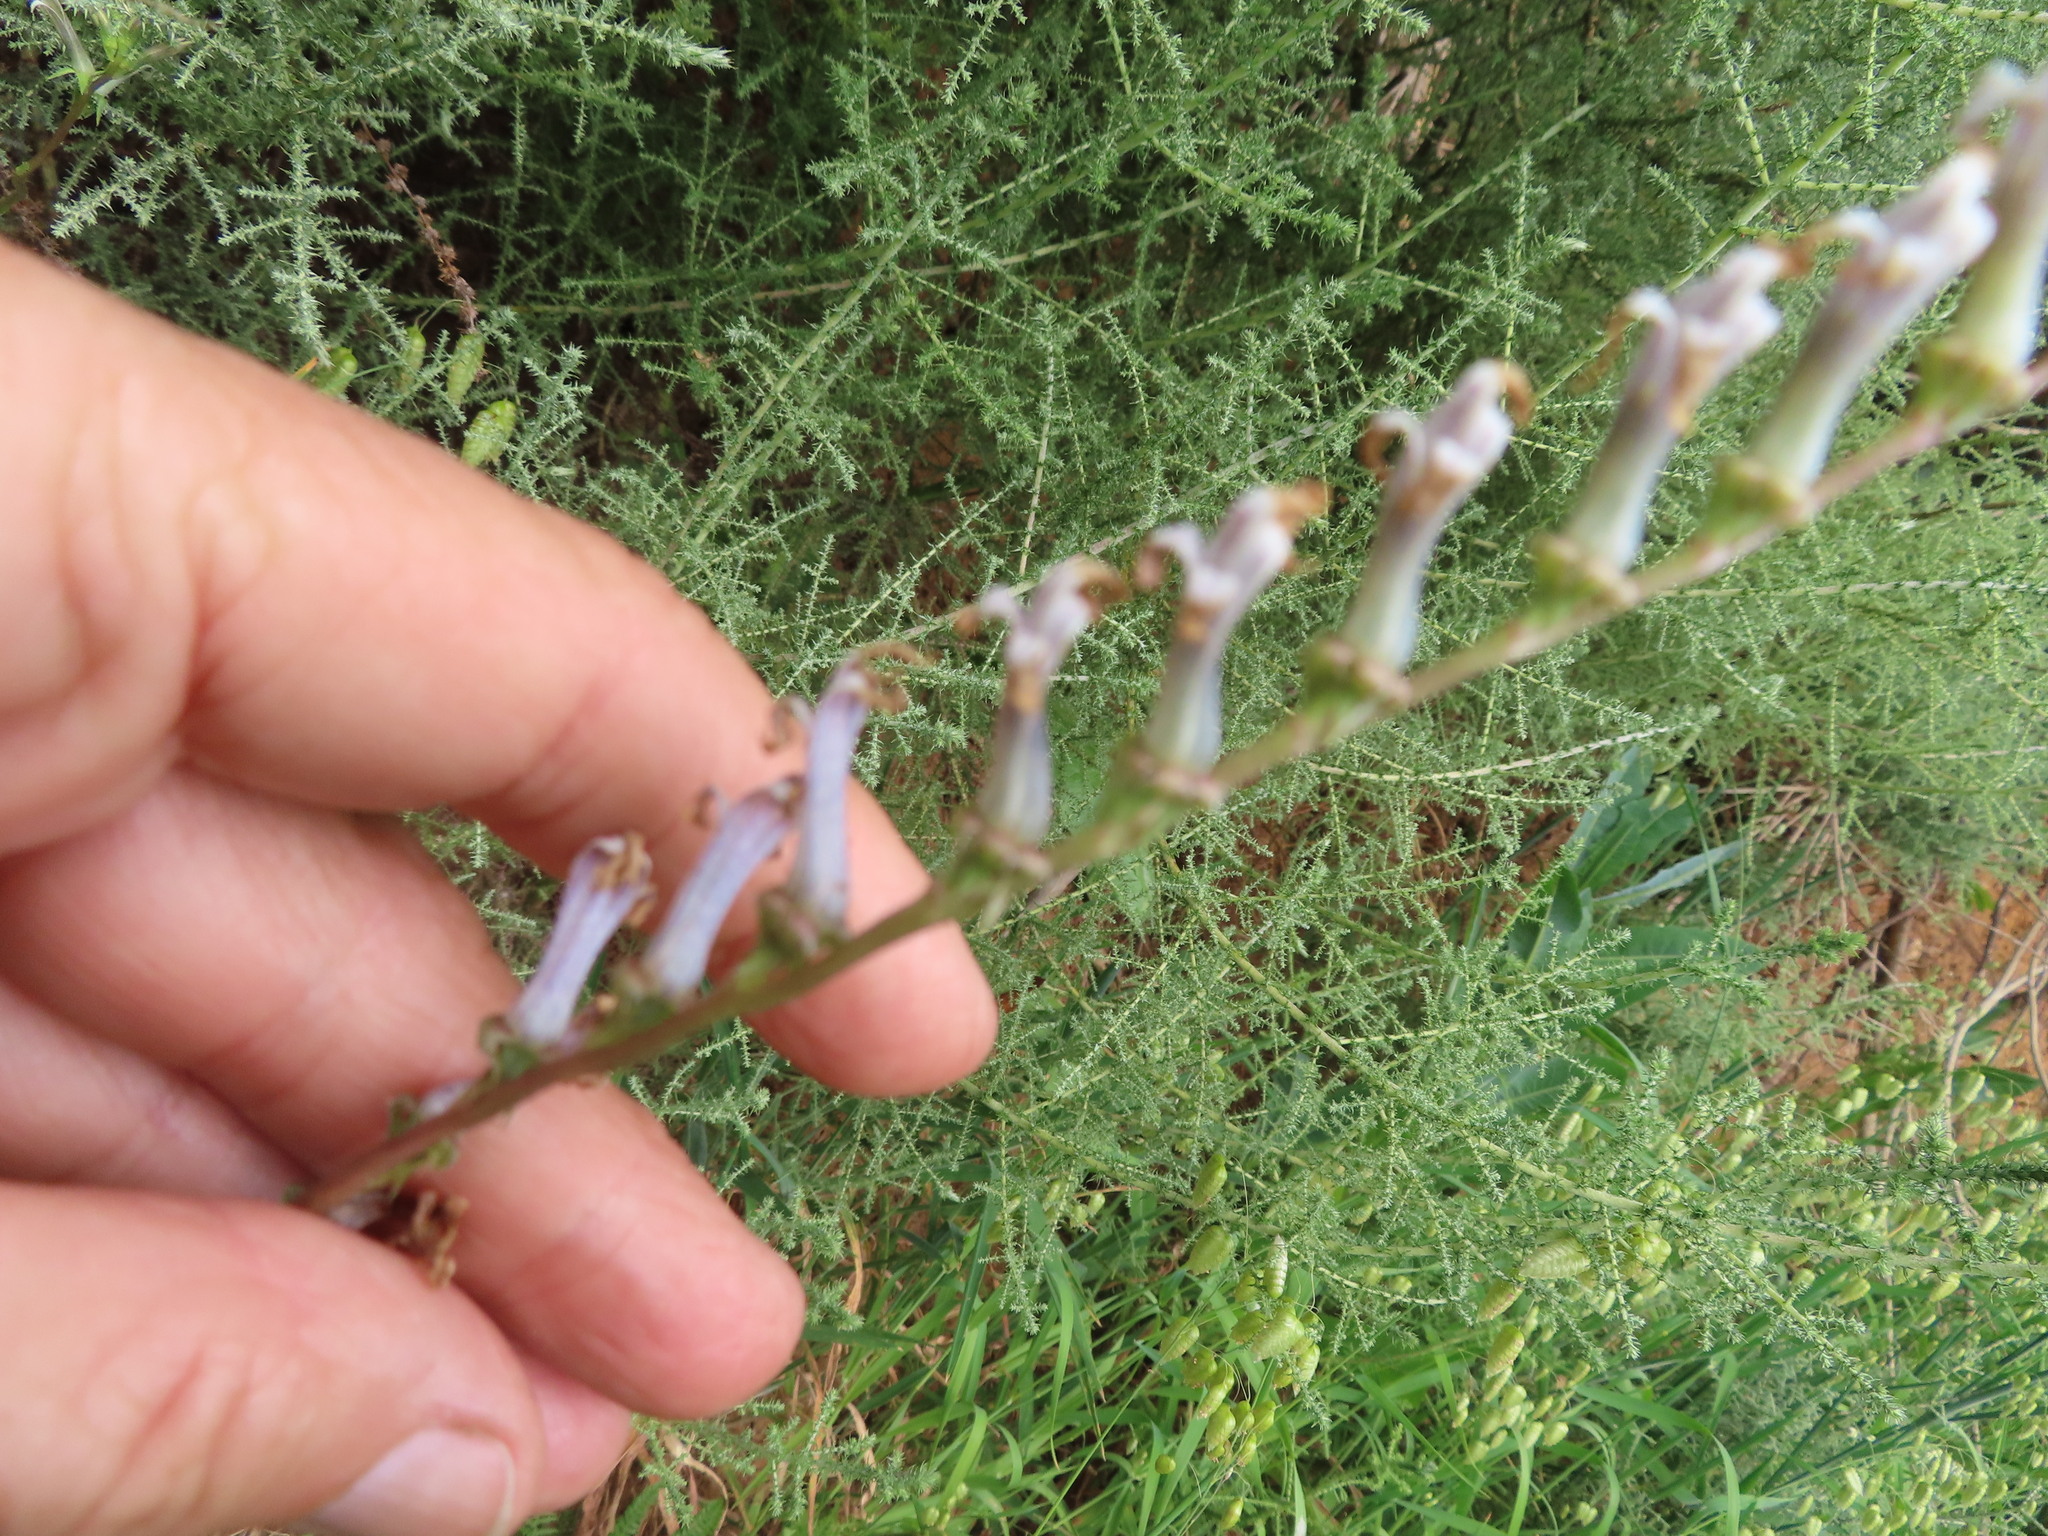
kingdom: Plantae
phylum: Tracheophyta
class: Magnoliopsida
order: Asterales
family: Campanulaceae
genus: Cyphia
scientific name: Cyphia phyteuma
